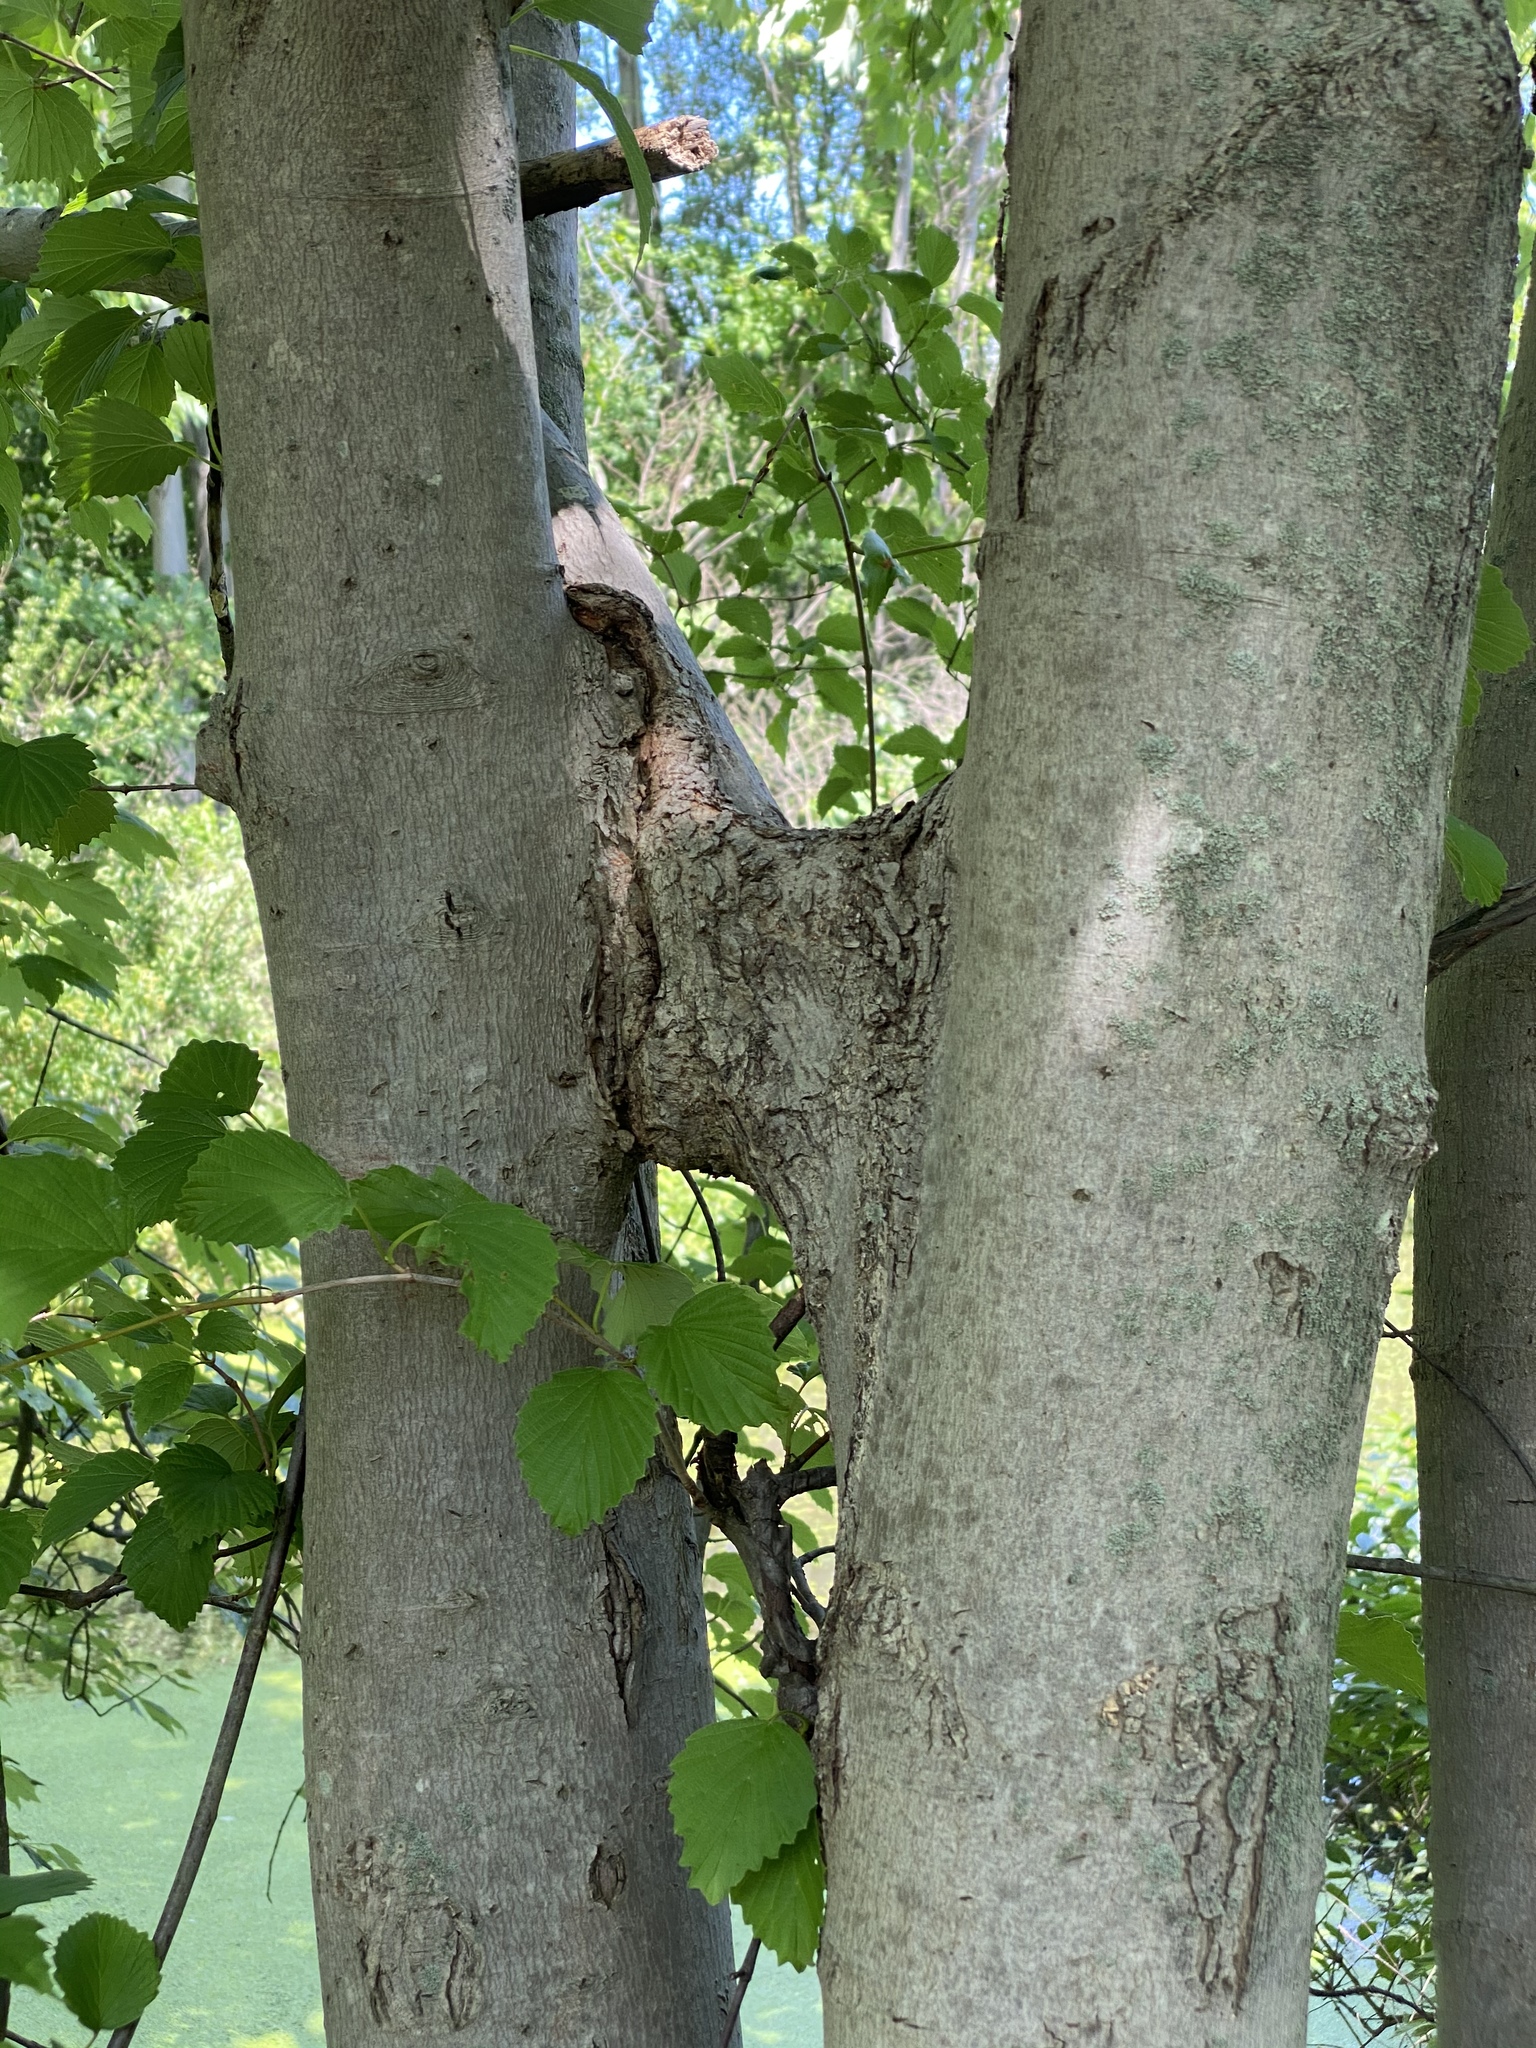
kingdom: Plantae
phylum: Tracheophyta
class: Magnoliopsida
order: Fagales
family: Fagaceae
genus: Fagus
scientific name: Fagus grandifolia
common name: American beech
